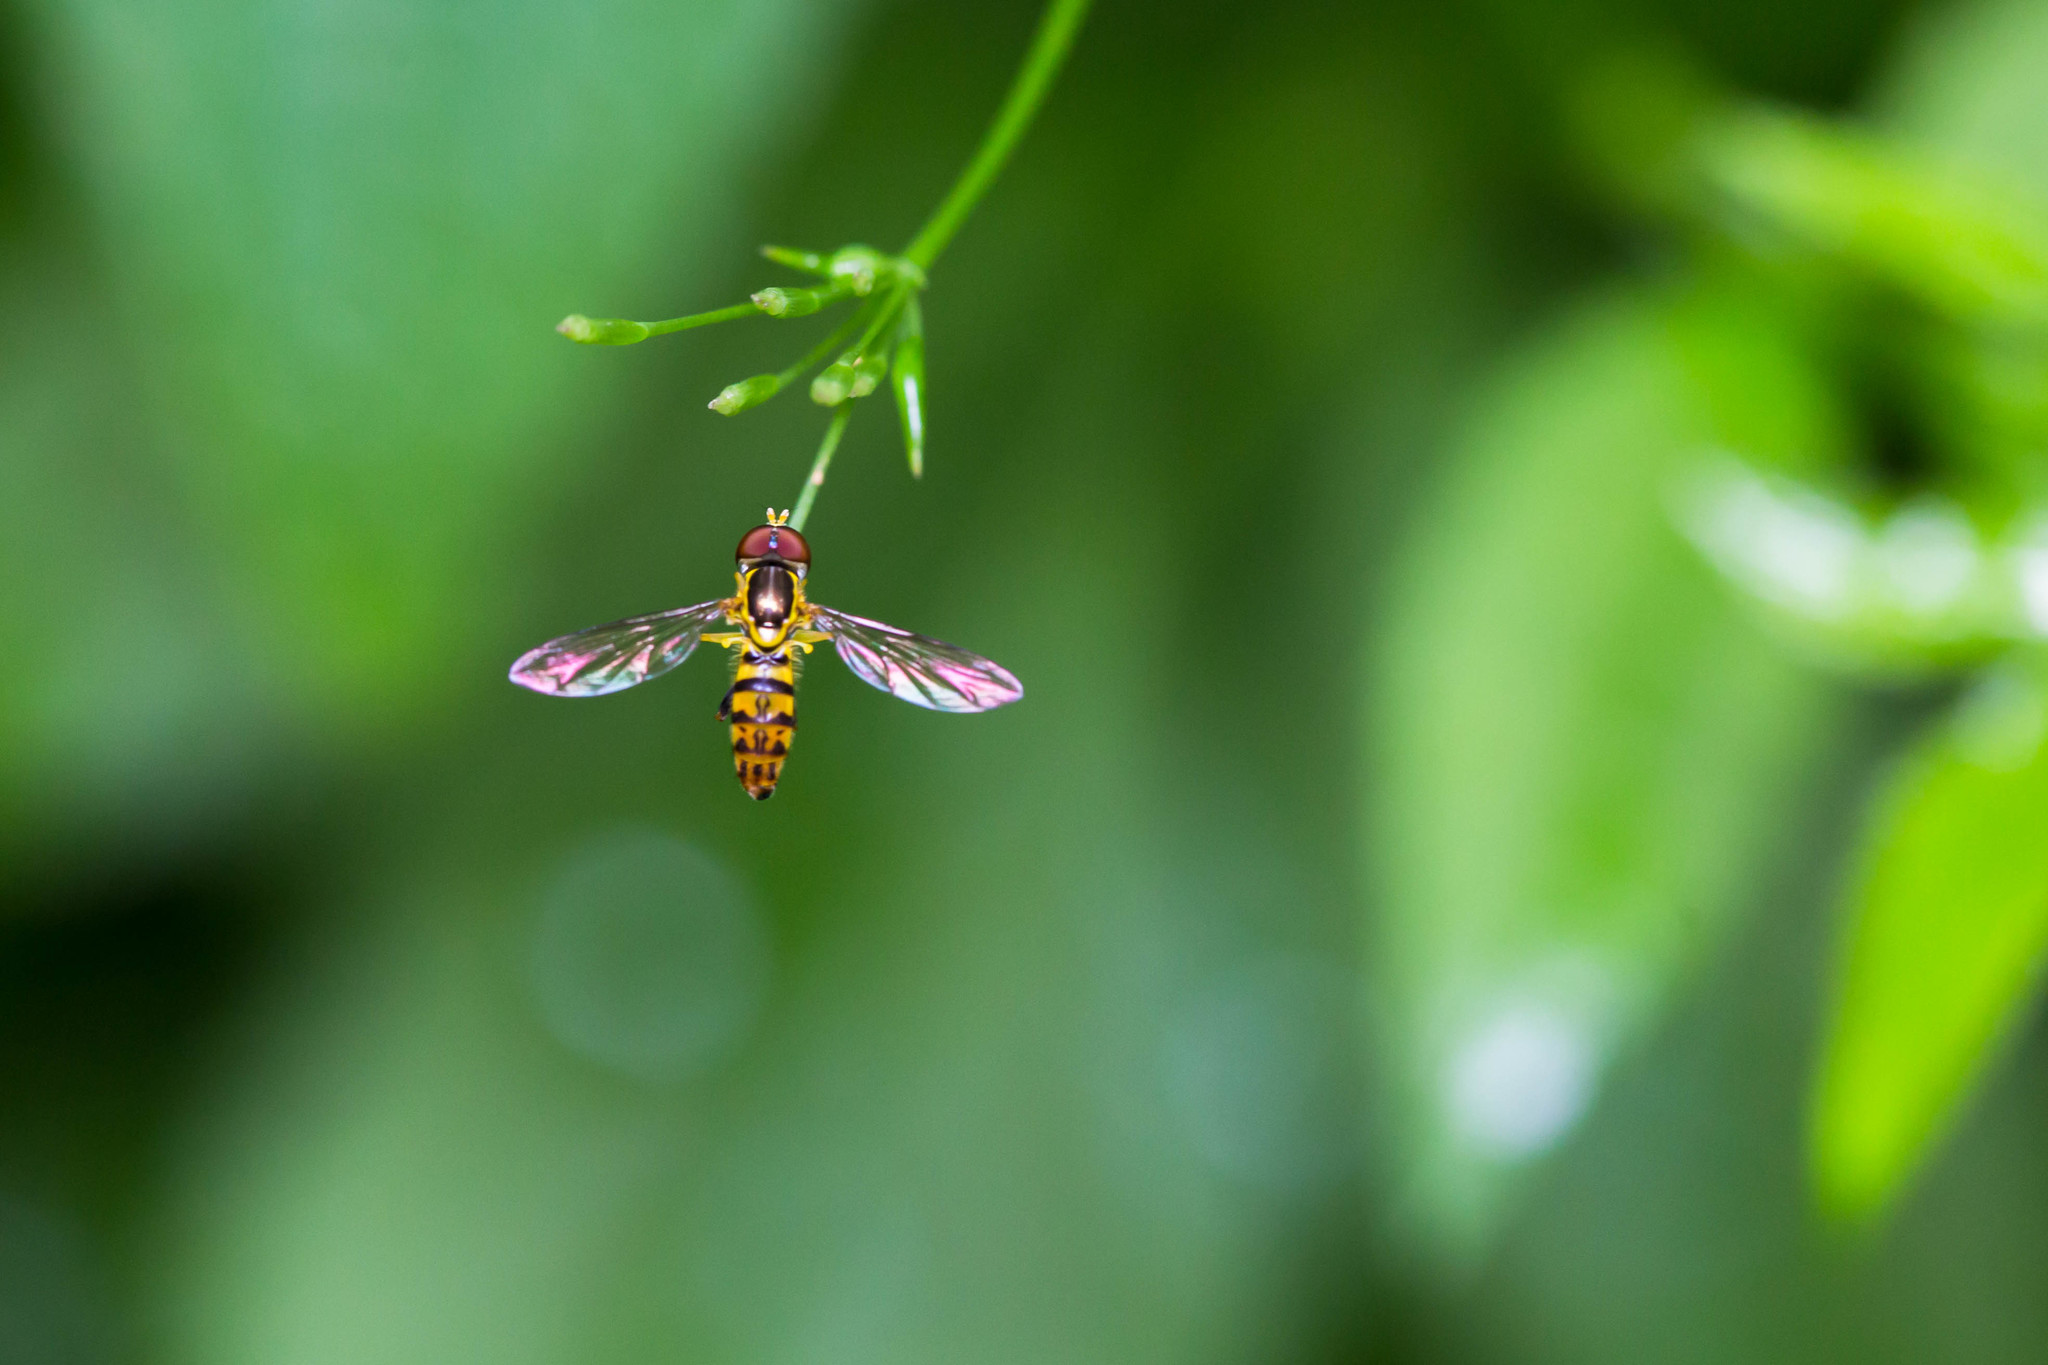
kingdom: Animalia
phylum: Arthropoda
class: Insecta
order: Diptera
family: Syrphidae
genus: Toxomerus
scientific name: Toxomerus geminatus
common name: Eastern calligrapher
